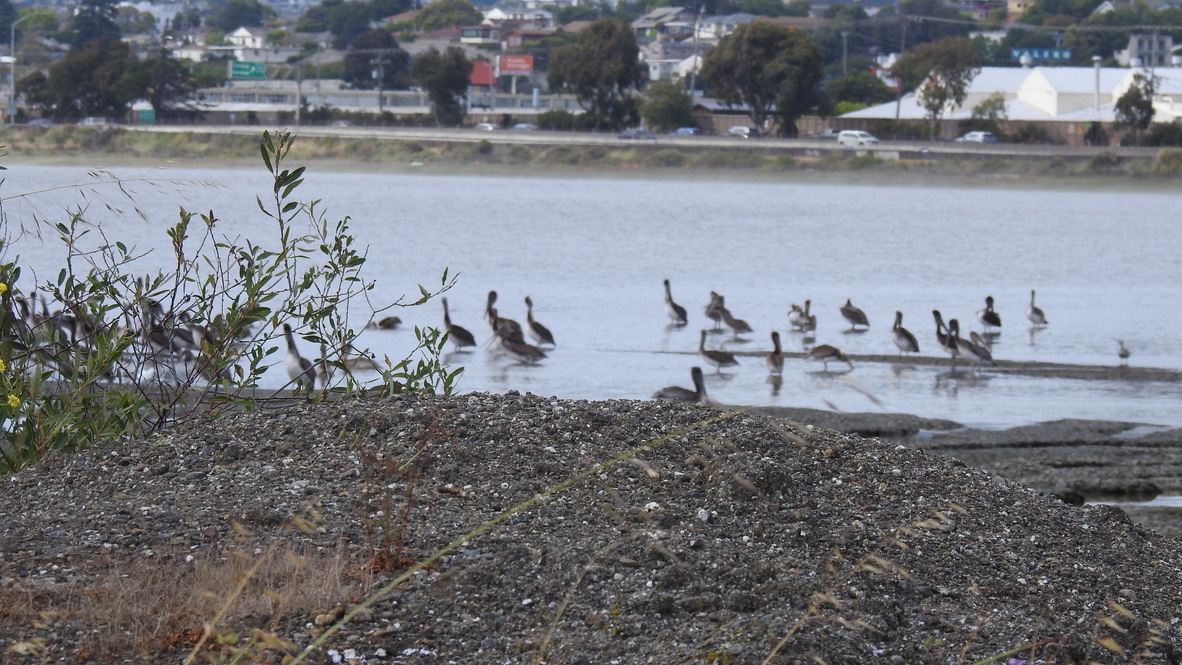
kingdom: Animalia
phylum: Chordata
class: Aves
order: Pelecaniformes
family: Pelecanidae
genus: Pelecanus
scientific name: Pelecanus occidentalis
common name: Brown pelican
